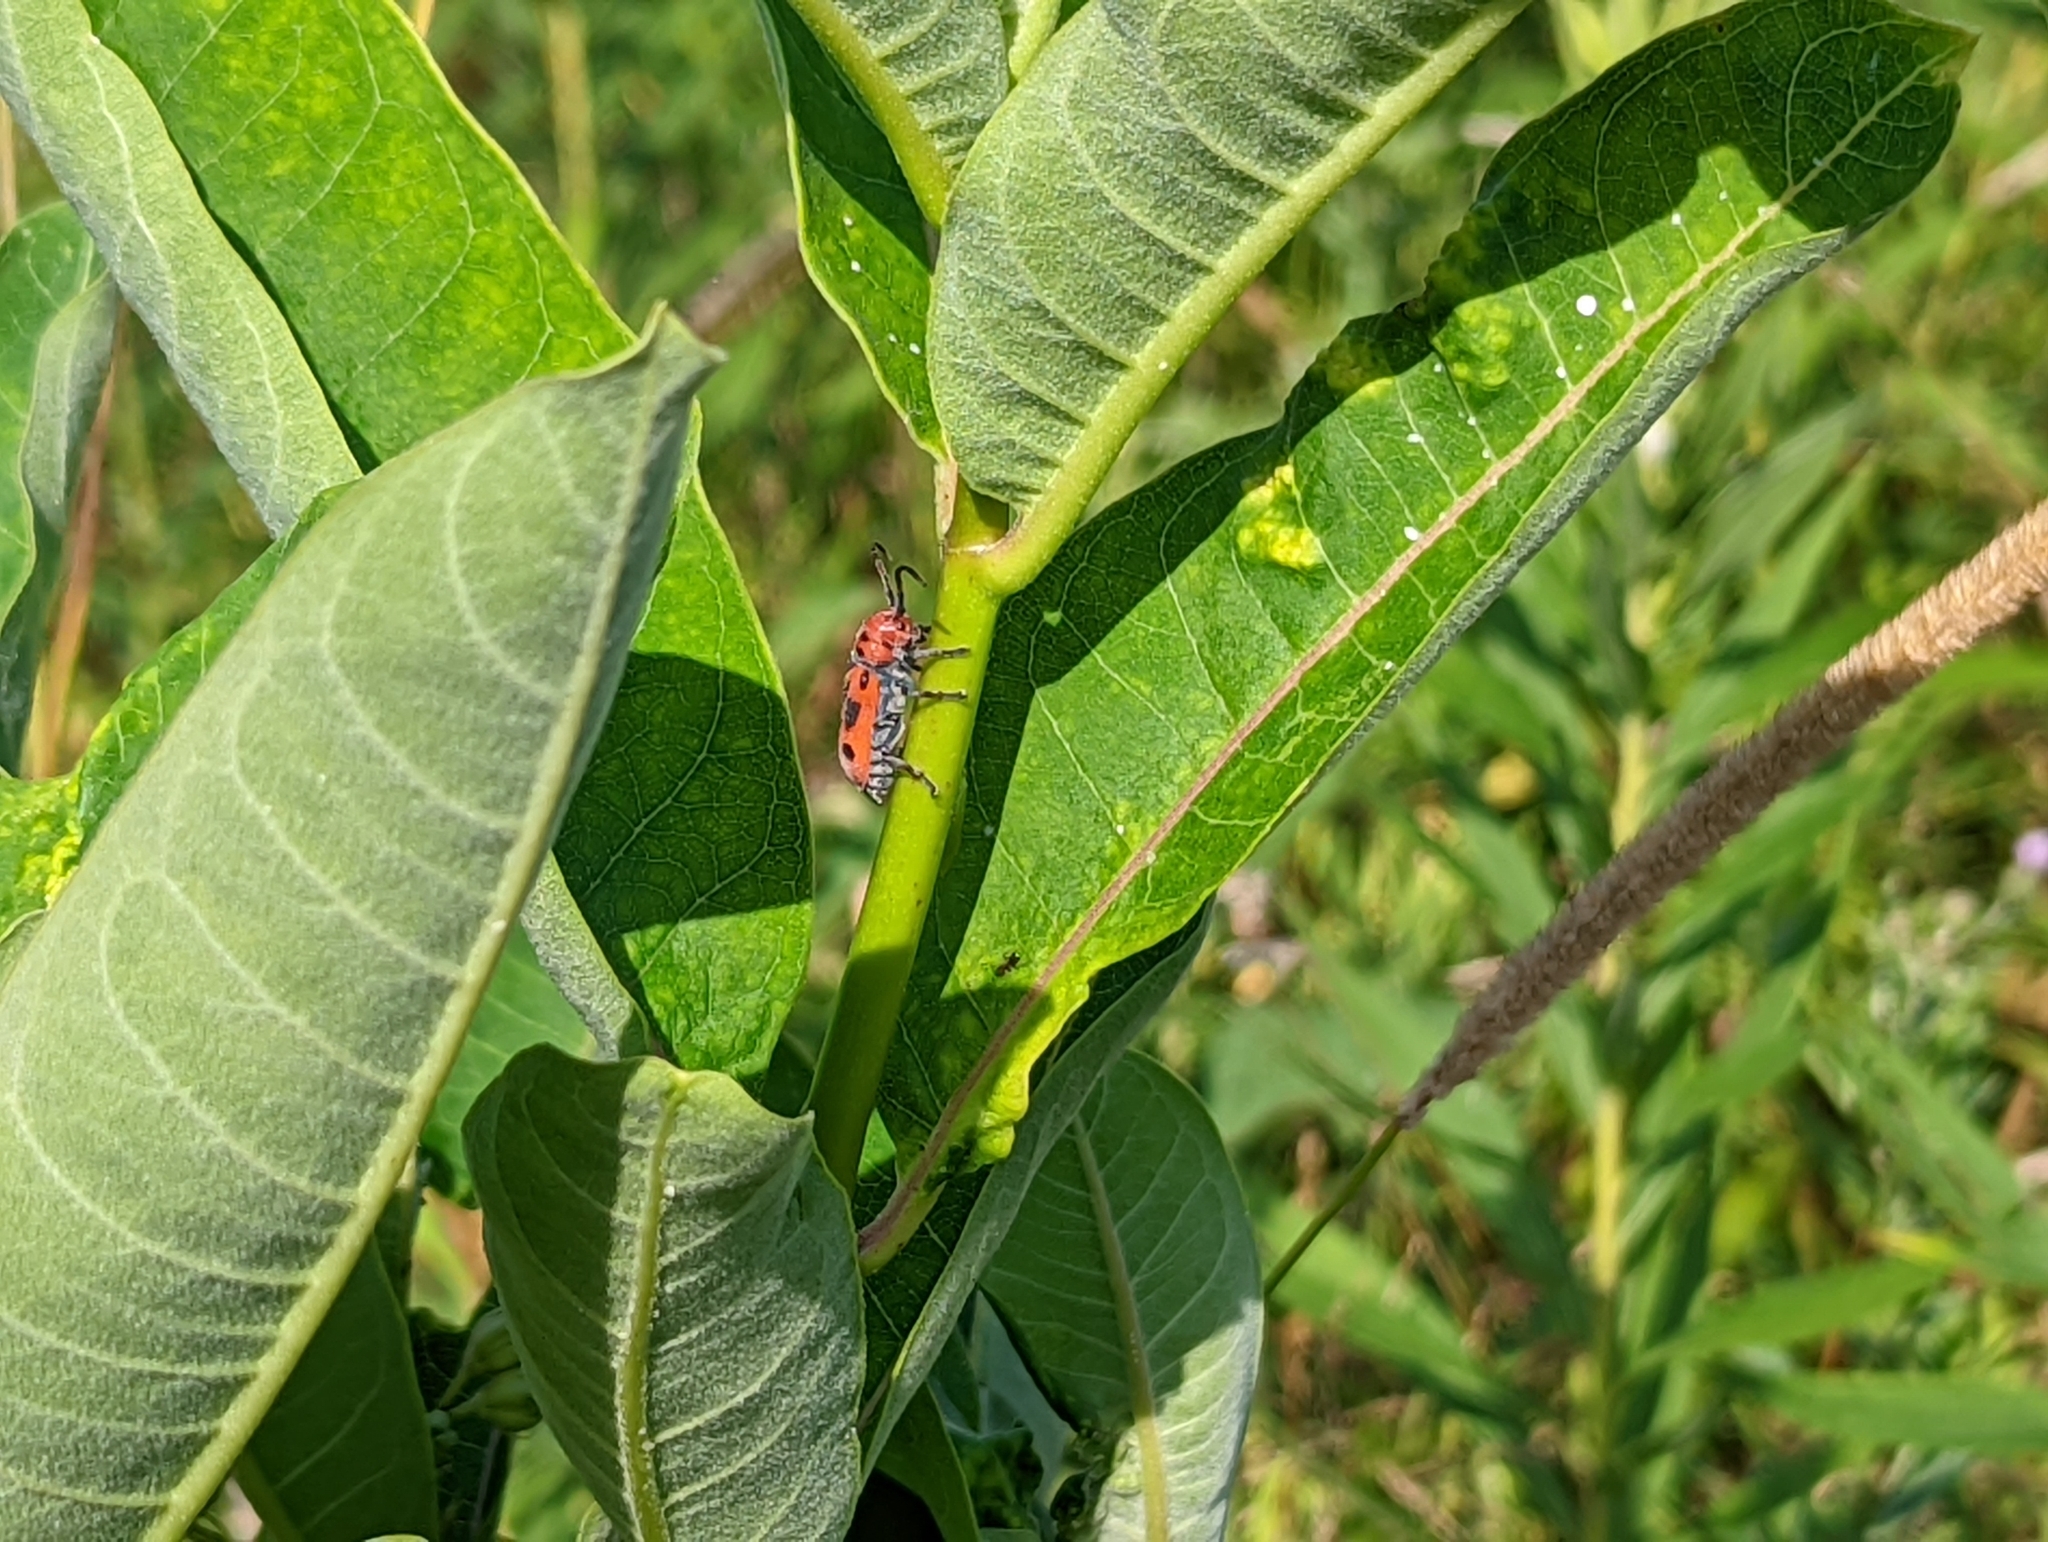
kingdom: Animalia
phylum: Arthropoda
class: Insecta
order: Coleoptera
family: Cerambycidae
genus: Tetraopes
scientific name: Tetraopes tetrophthalmus
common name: Red milkweed beetle
